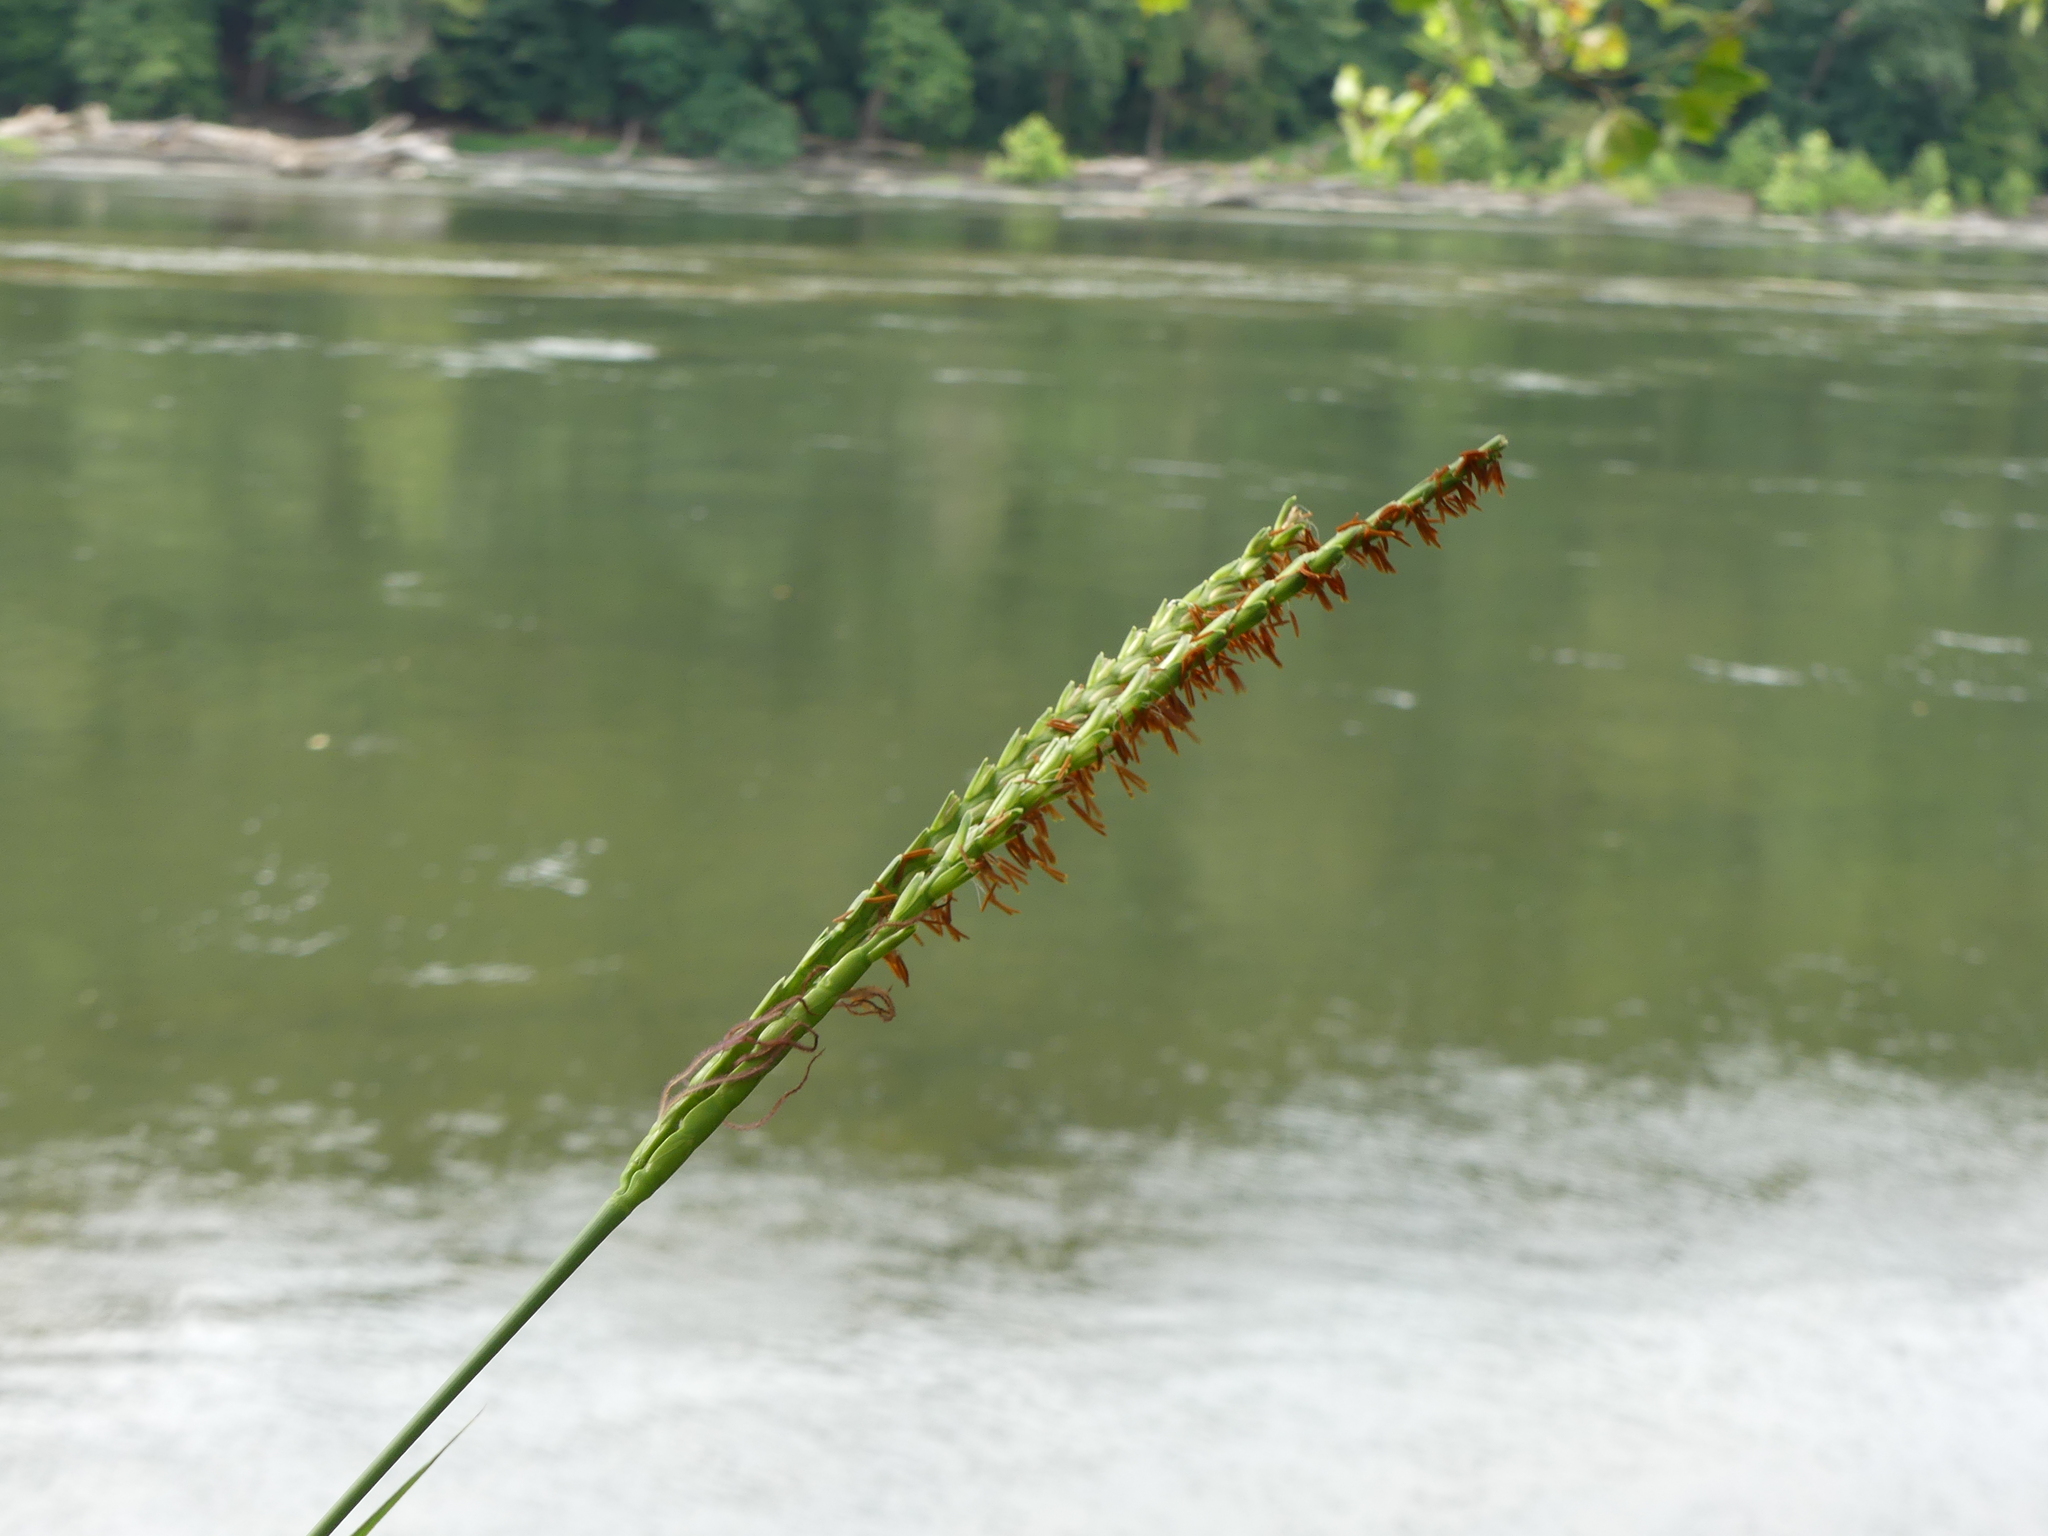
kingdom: Plantae
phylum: Tracheophyta
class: Liliopsida
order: Poales
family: Poaceae
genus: Tripsacum
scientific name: Tripsacum dactyloides
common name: Buffalo-grass
